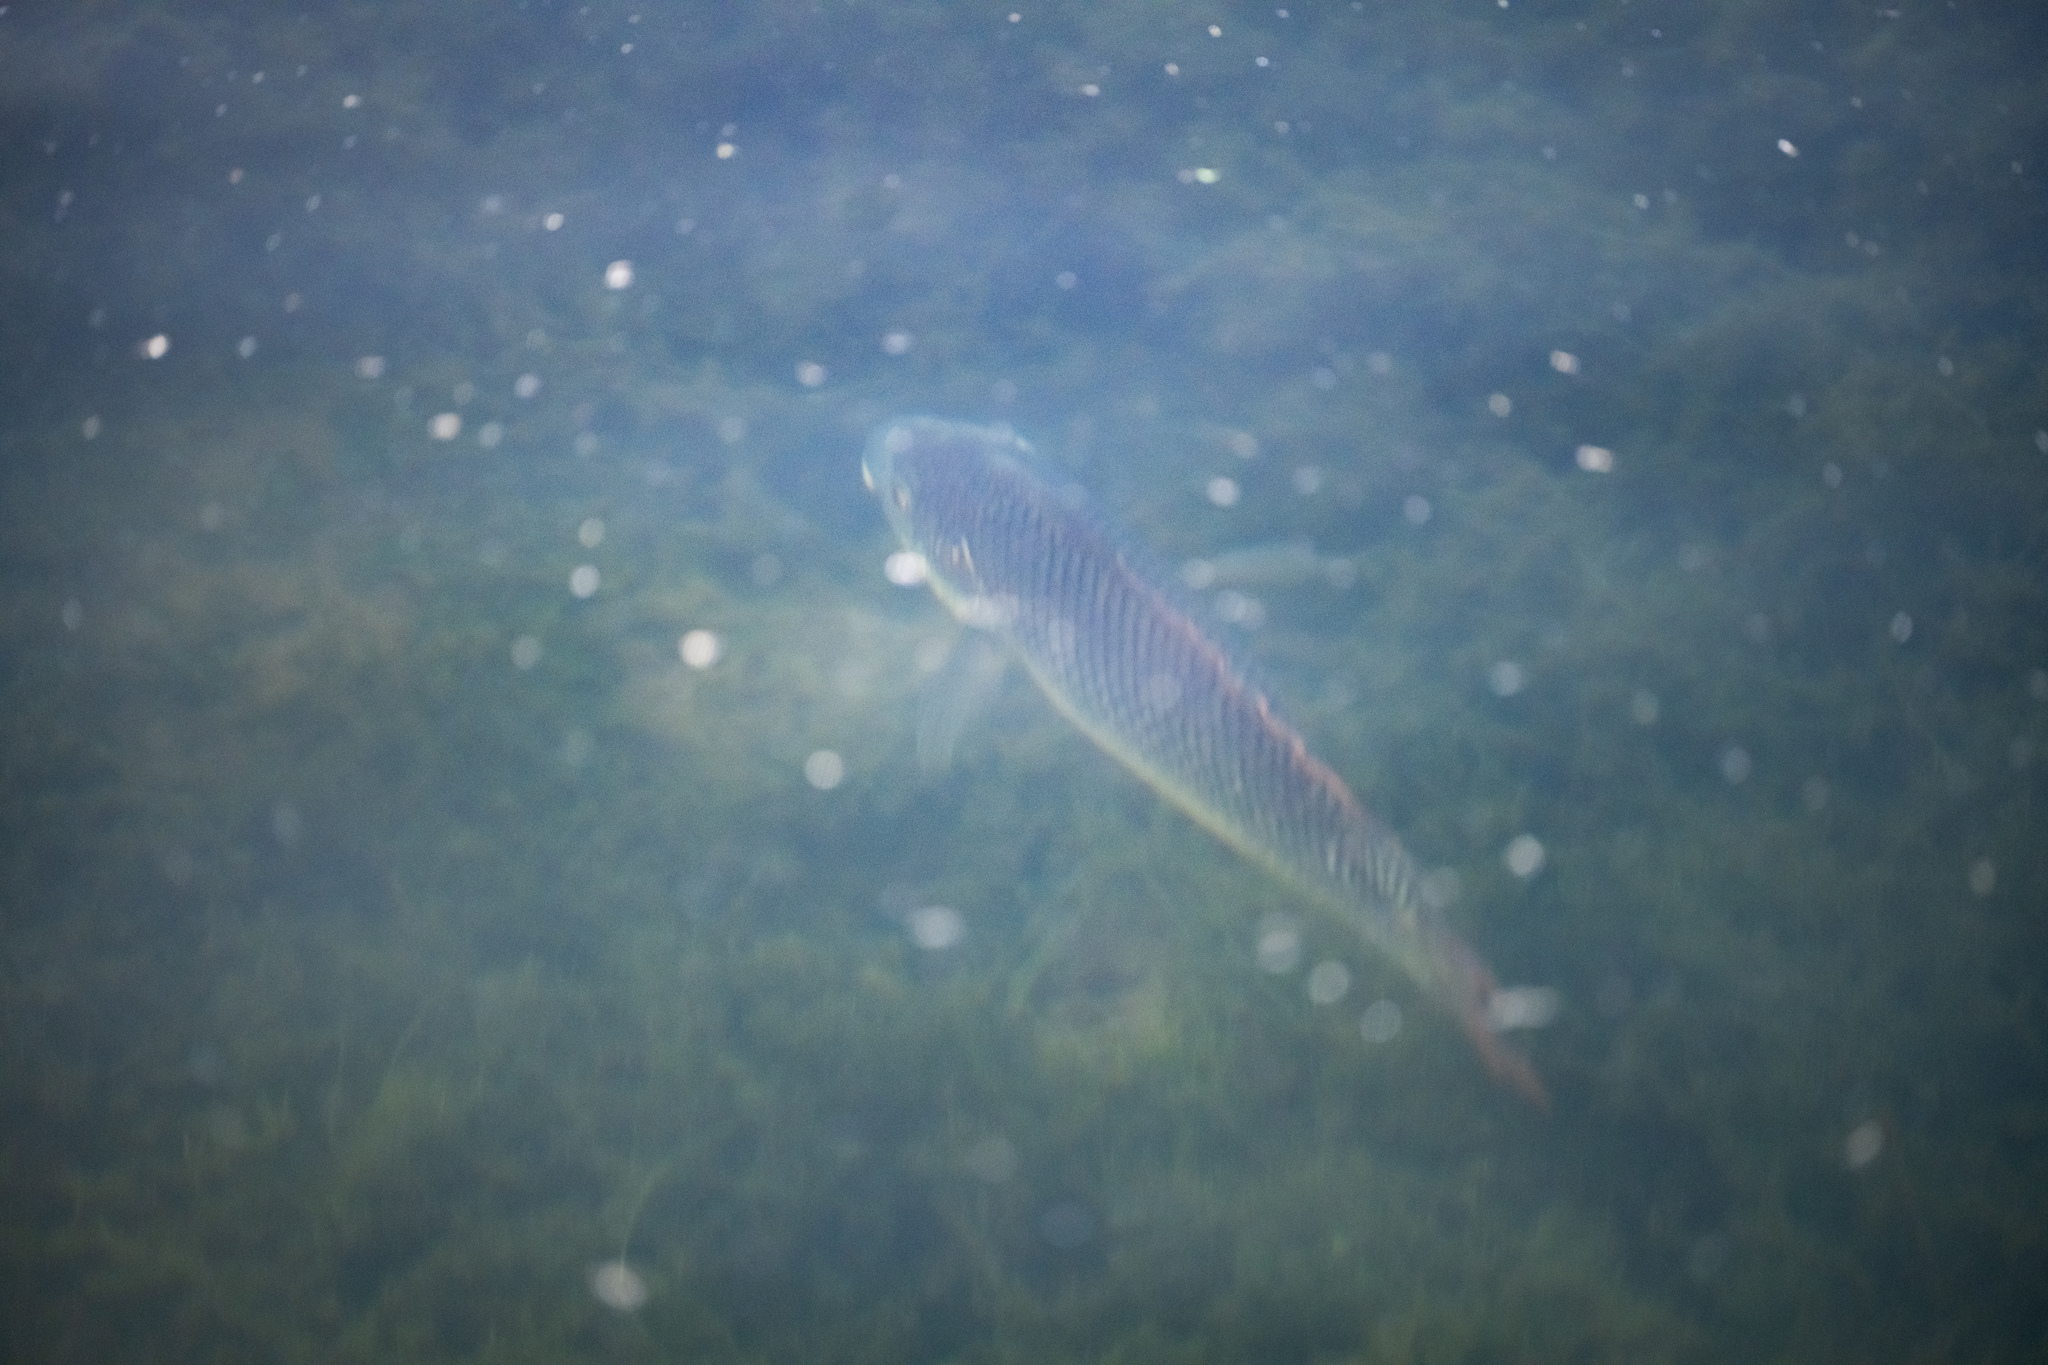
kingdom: Animalia
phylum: Chordata
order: Perciformes
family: Cichlidae
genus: Oreochromis
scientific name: Oreochromis aureus
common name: Blue tilapia
